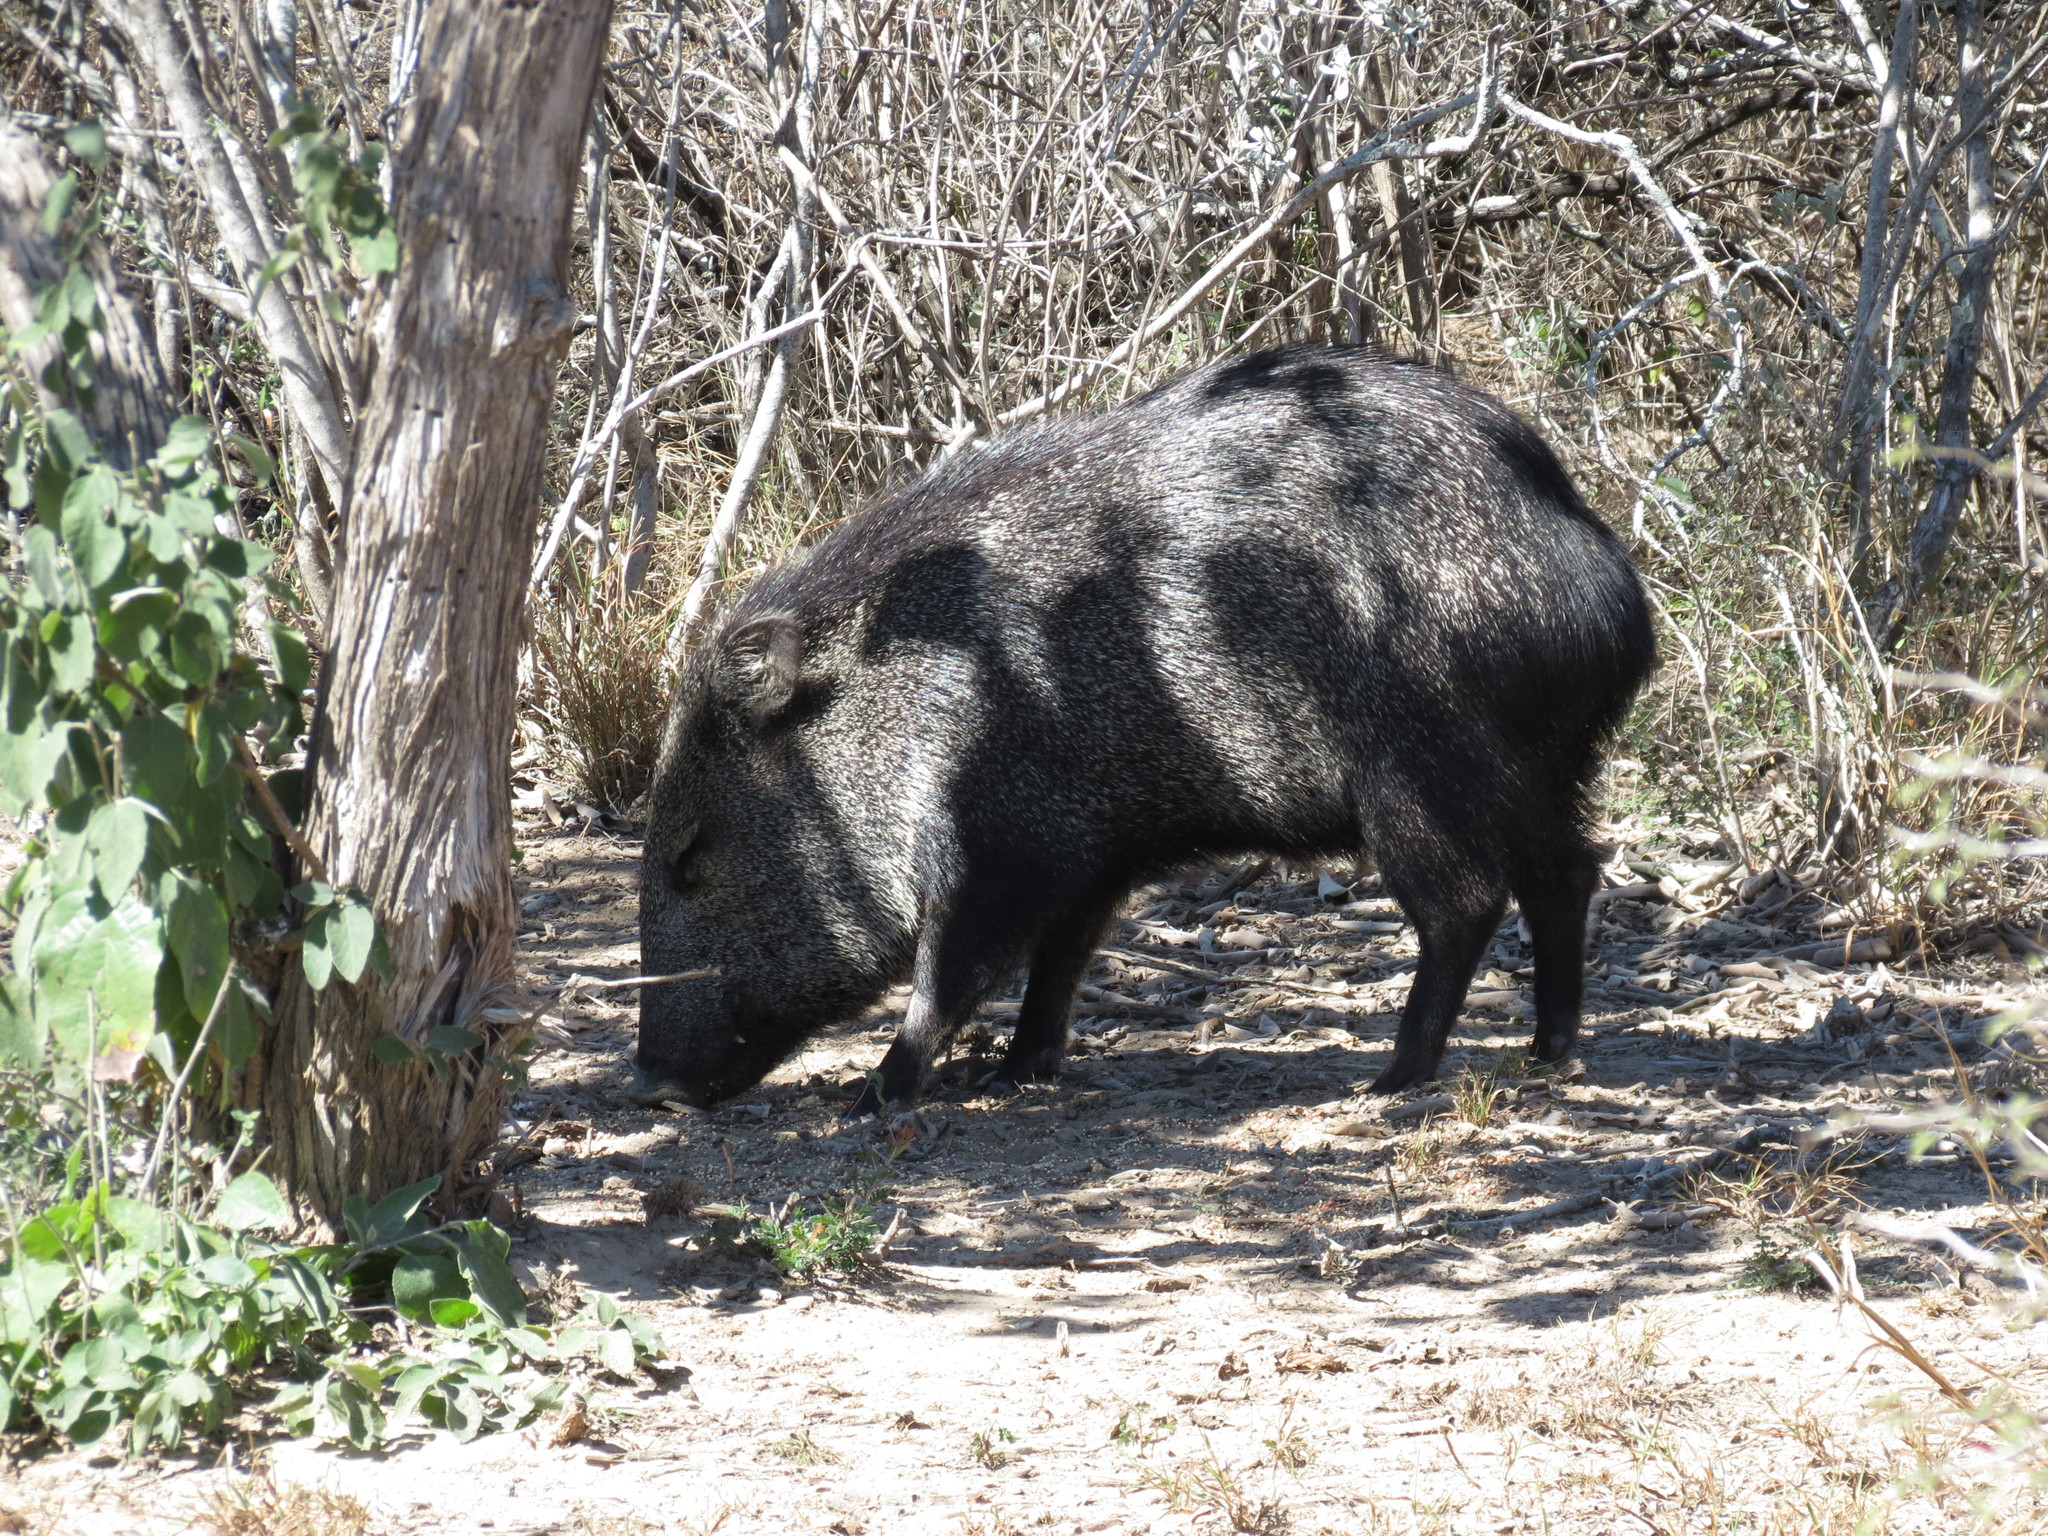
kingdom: Animalia
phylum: Chordata
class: Mammalia
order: Artiodactyla
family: Tayassuidae
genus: Pecari
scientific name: Pecari tajacu
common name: Collared peccary
